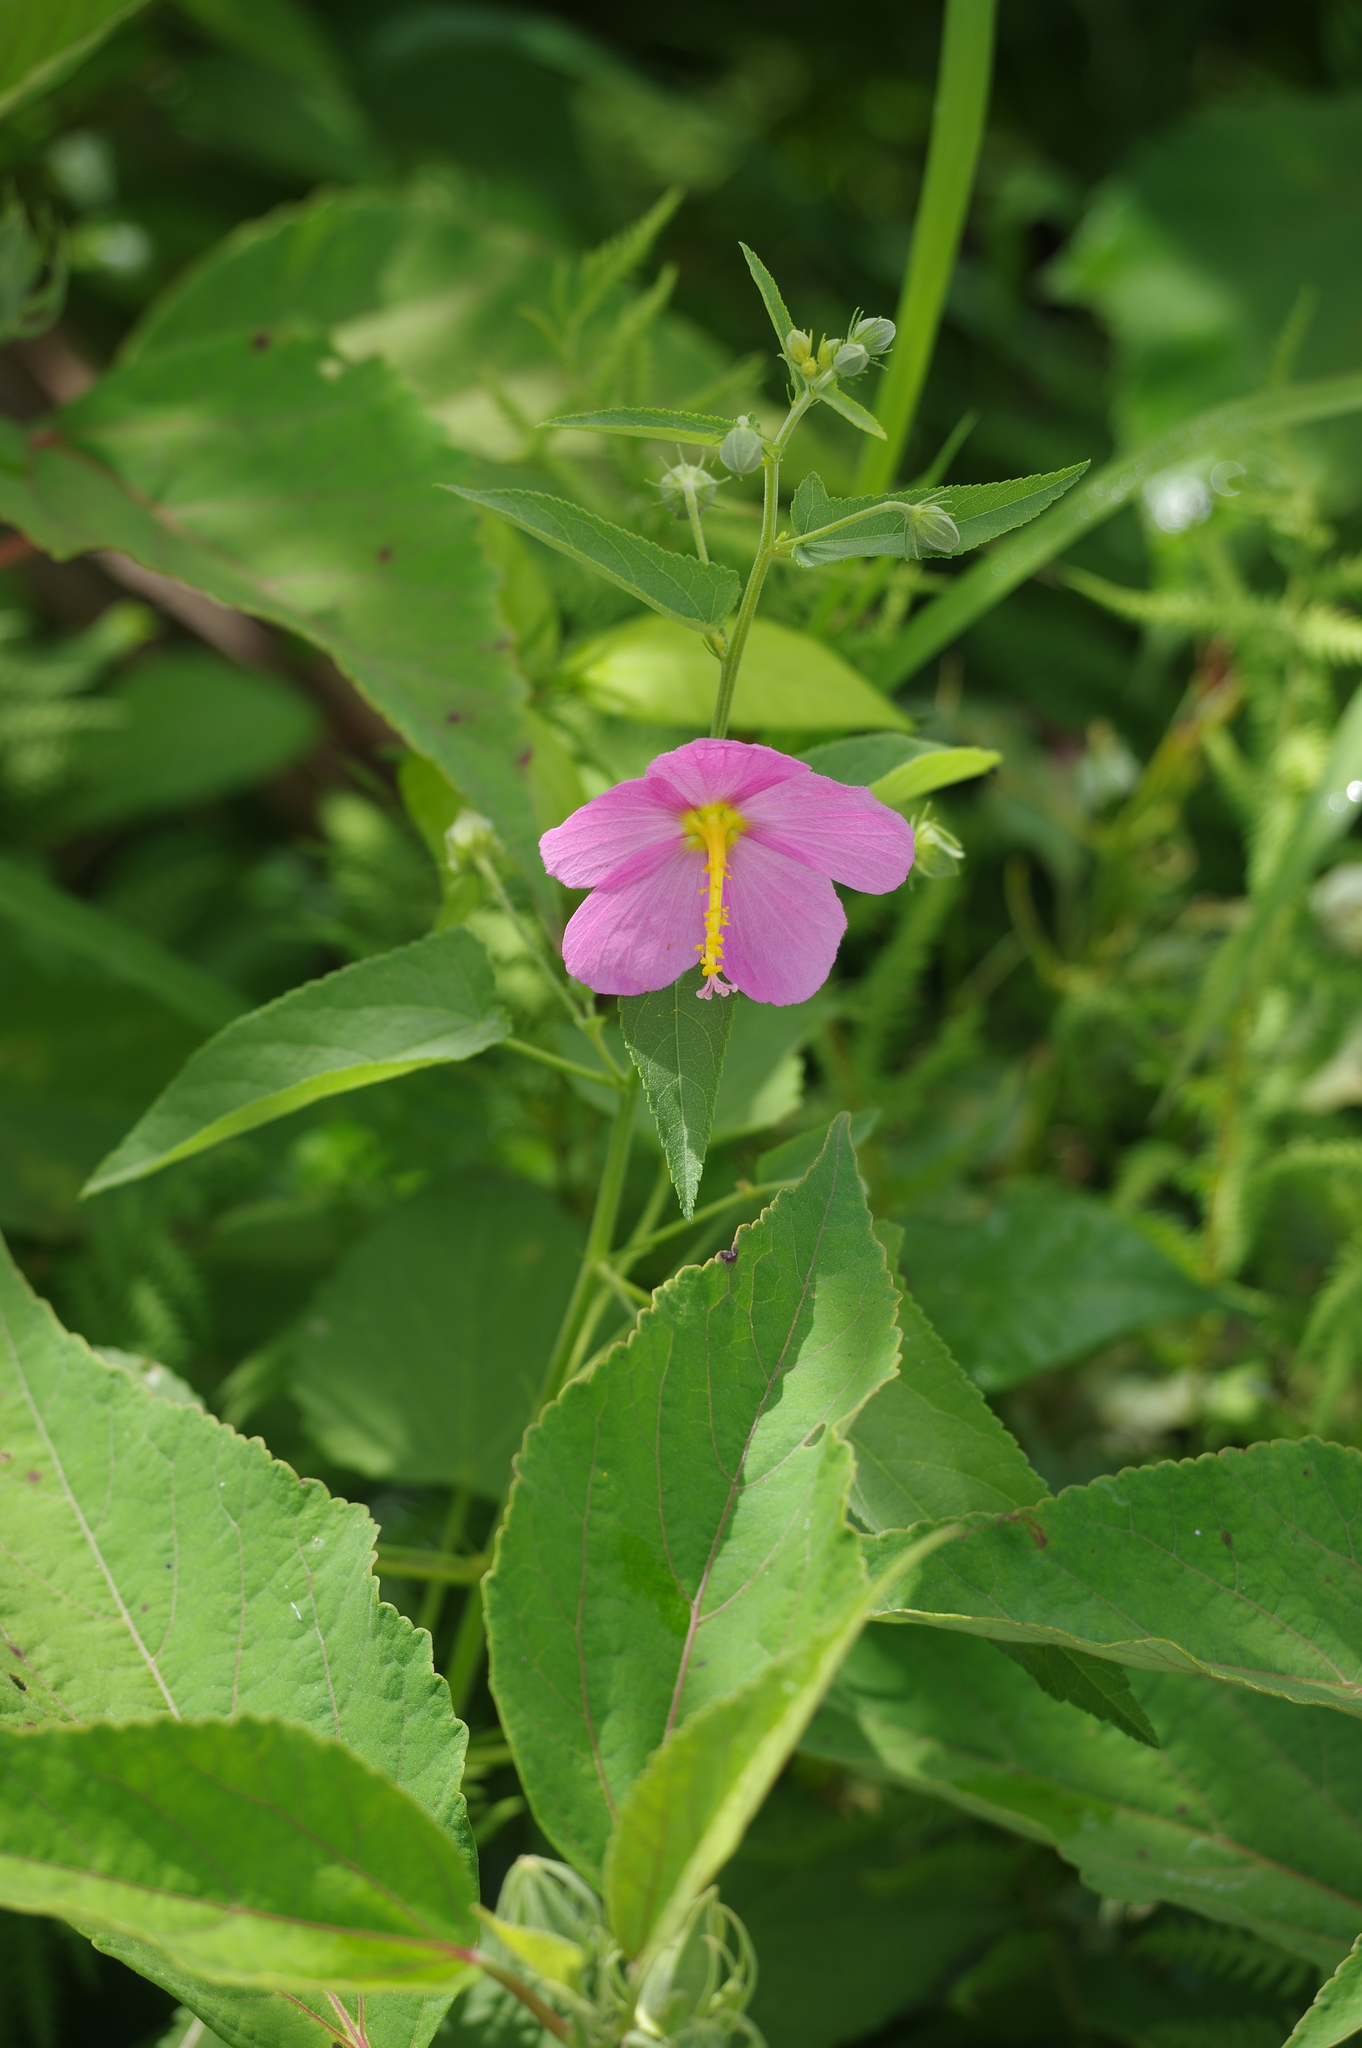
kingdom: Plantae
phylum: Tracheophyta
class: Magnoliopsida
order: Malvales
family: Malvaceae
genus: Kosteletzkya
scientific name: Kosteletzkya pentacarpos
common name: Virginia saltmarsh mallow
